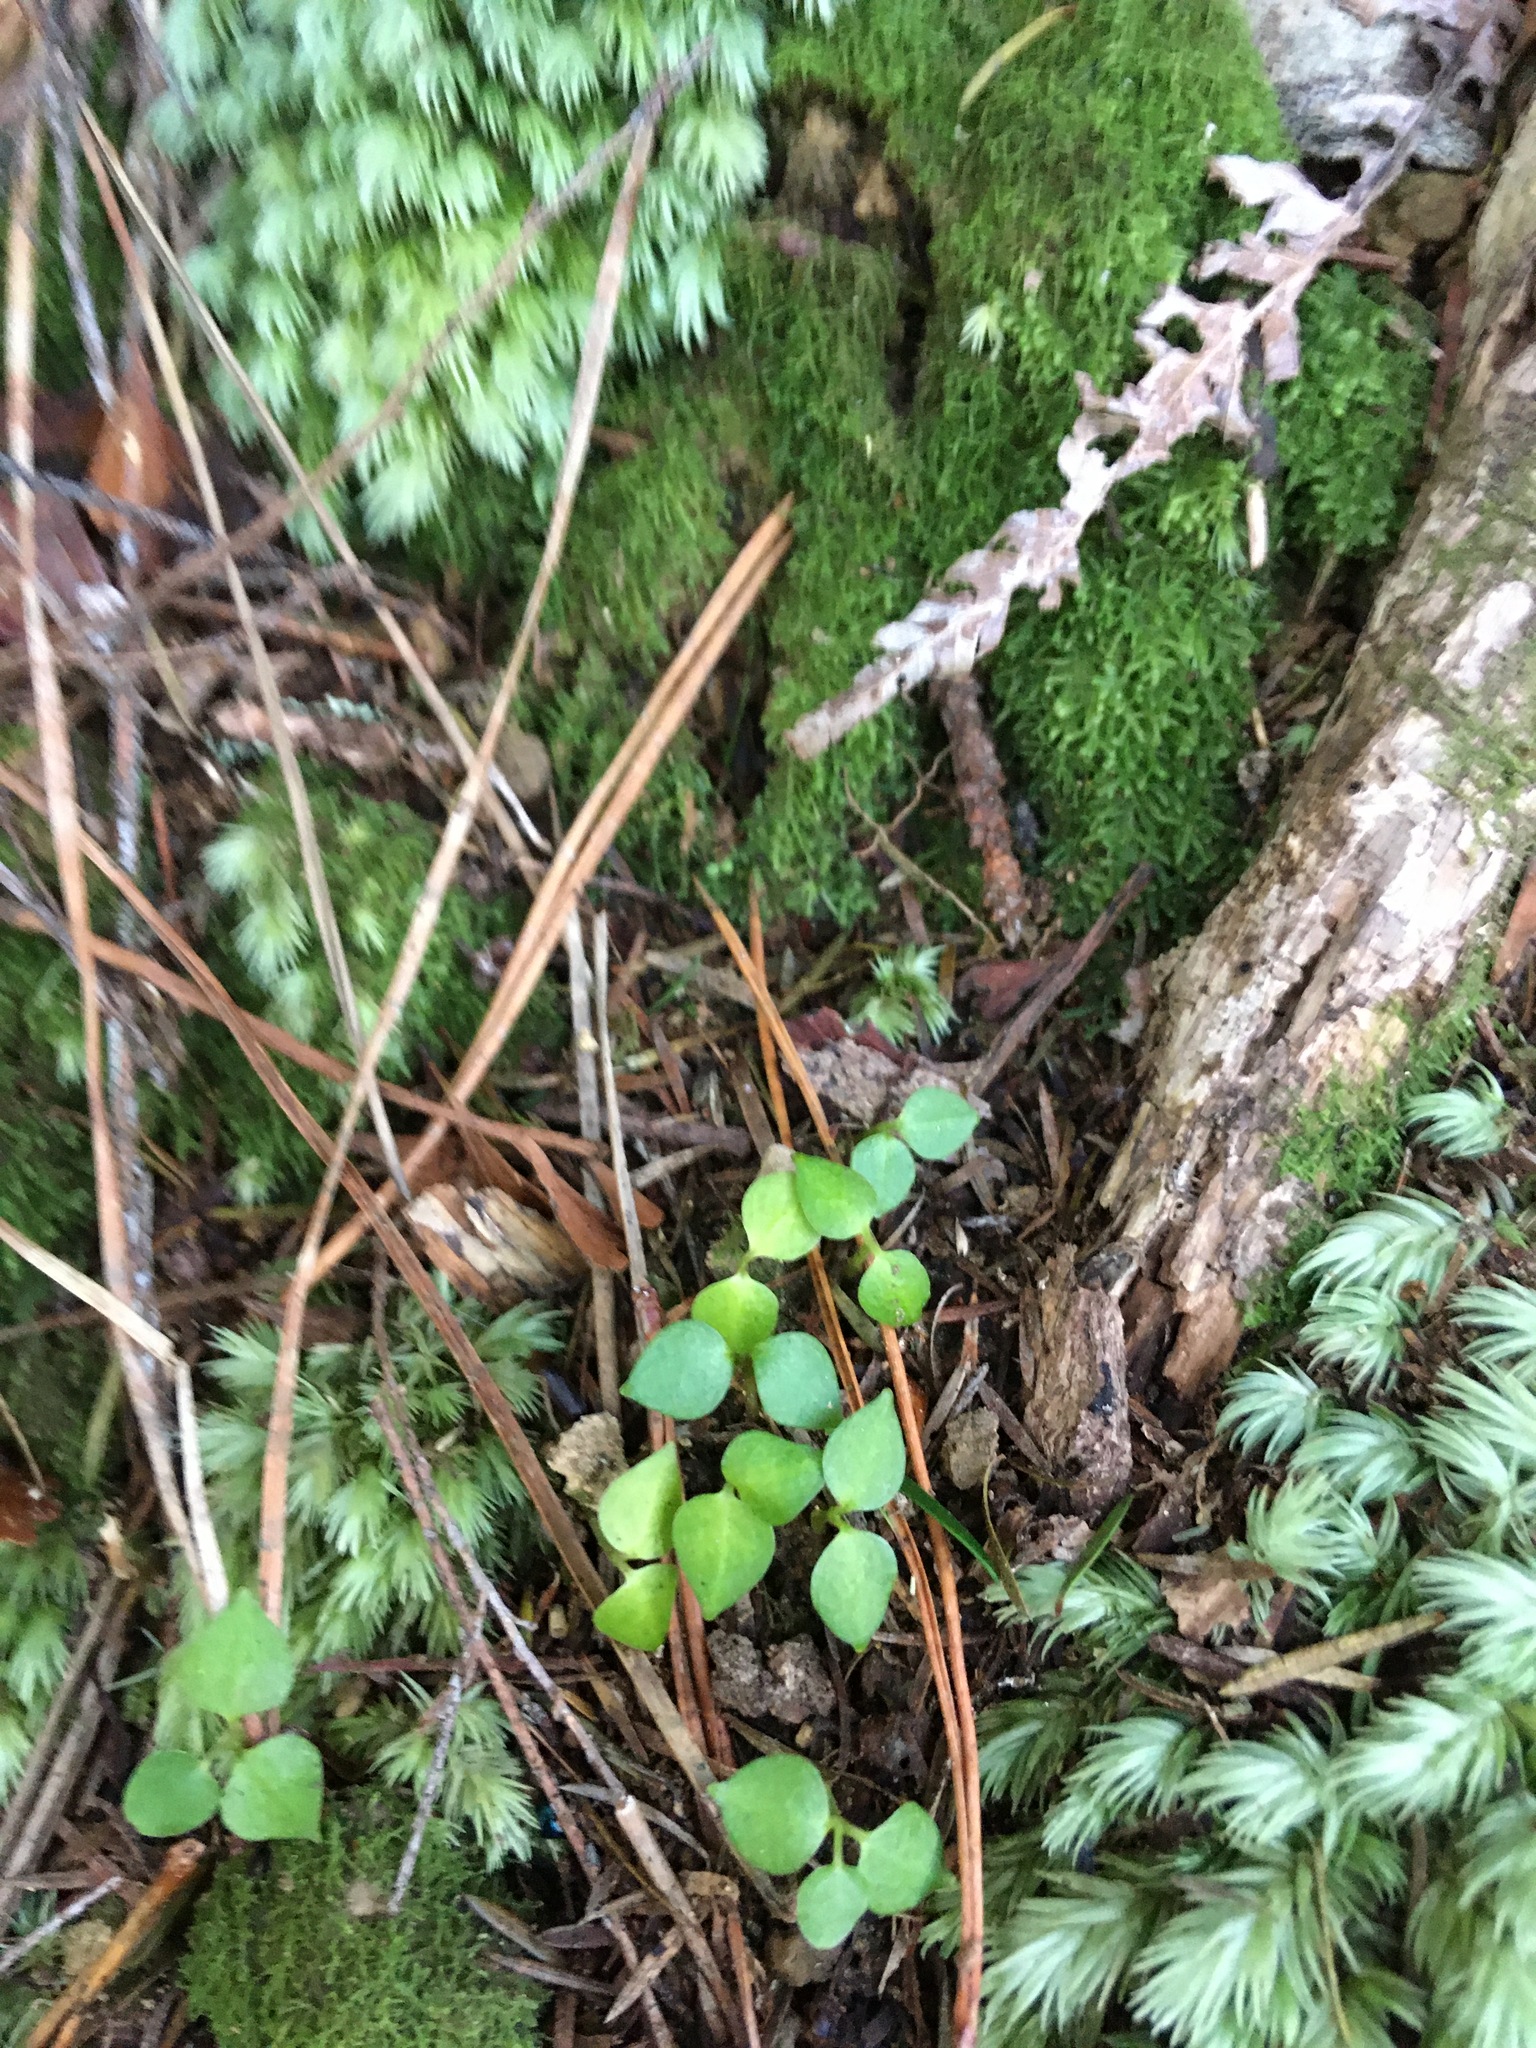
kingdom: Plantae
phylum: Tracheophyta
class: Magnoliopsida
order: Piperales
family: Piperaceae
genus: Macropiper
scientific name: Macropiper excelsum
